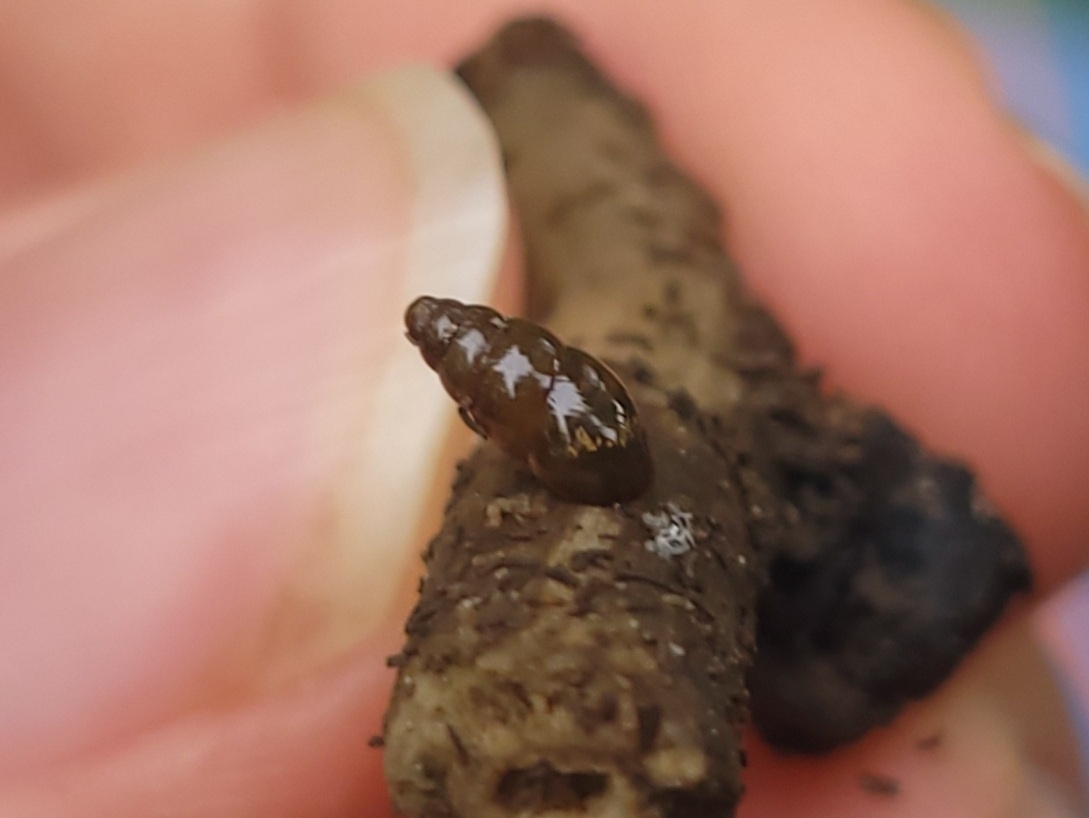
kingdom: Animalia
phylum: Mollusca
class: Gastropoda
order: Stylommatophora
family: Cochlicopidae
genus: Cochlicopa
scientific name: Cochlicopa lubrica
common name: Glossy pillar snail
